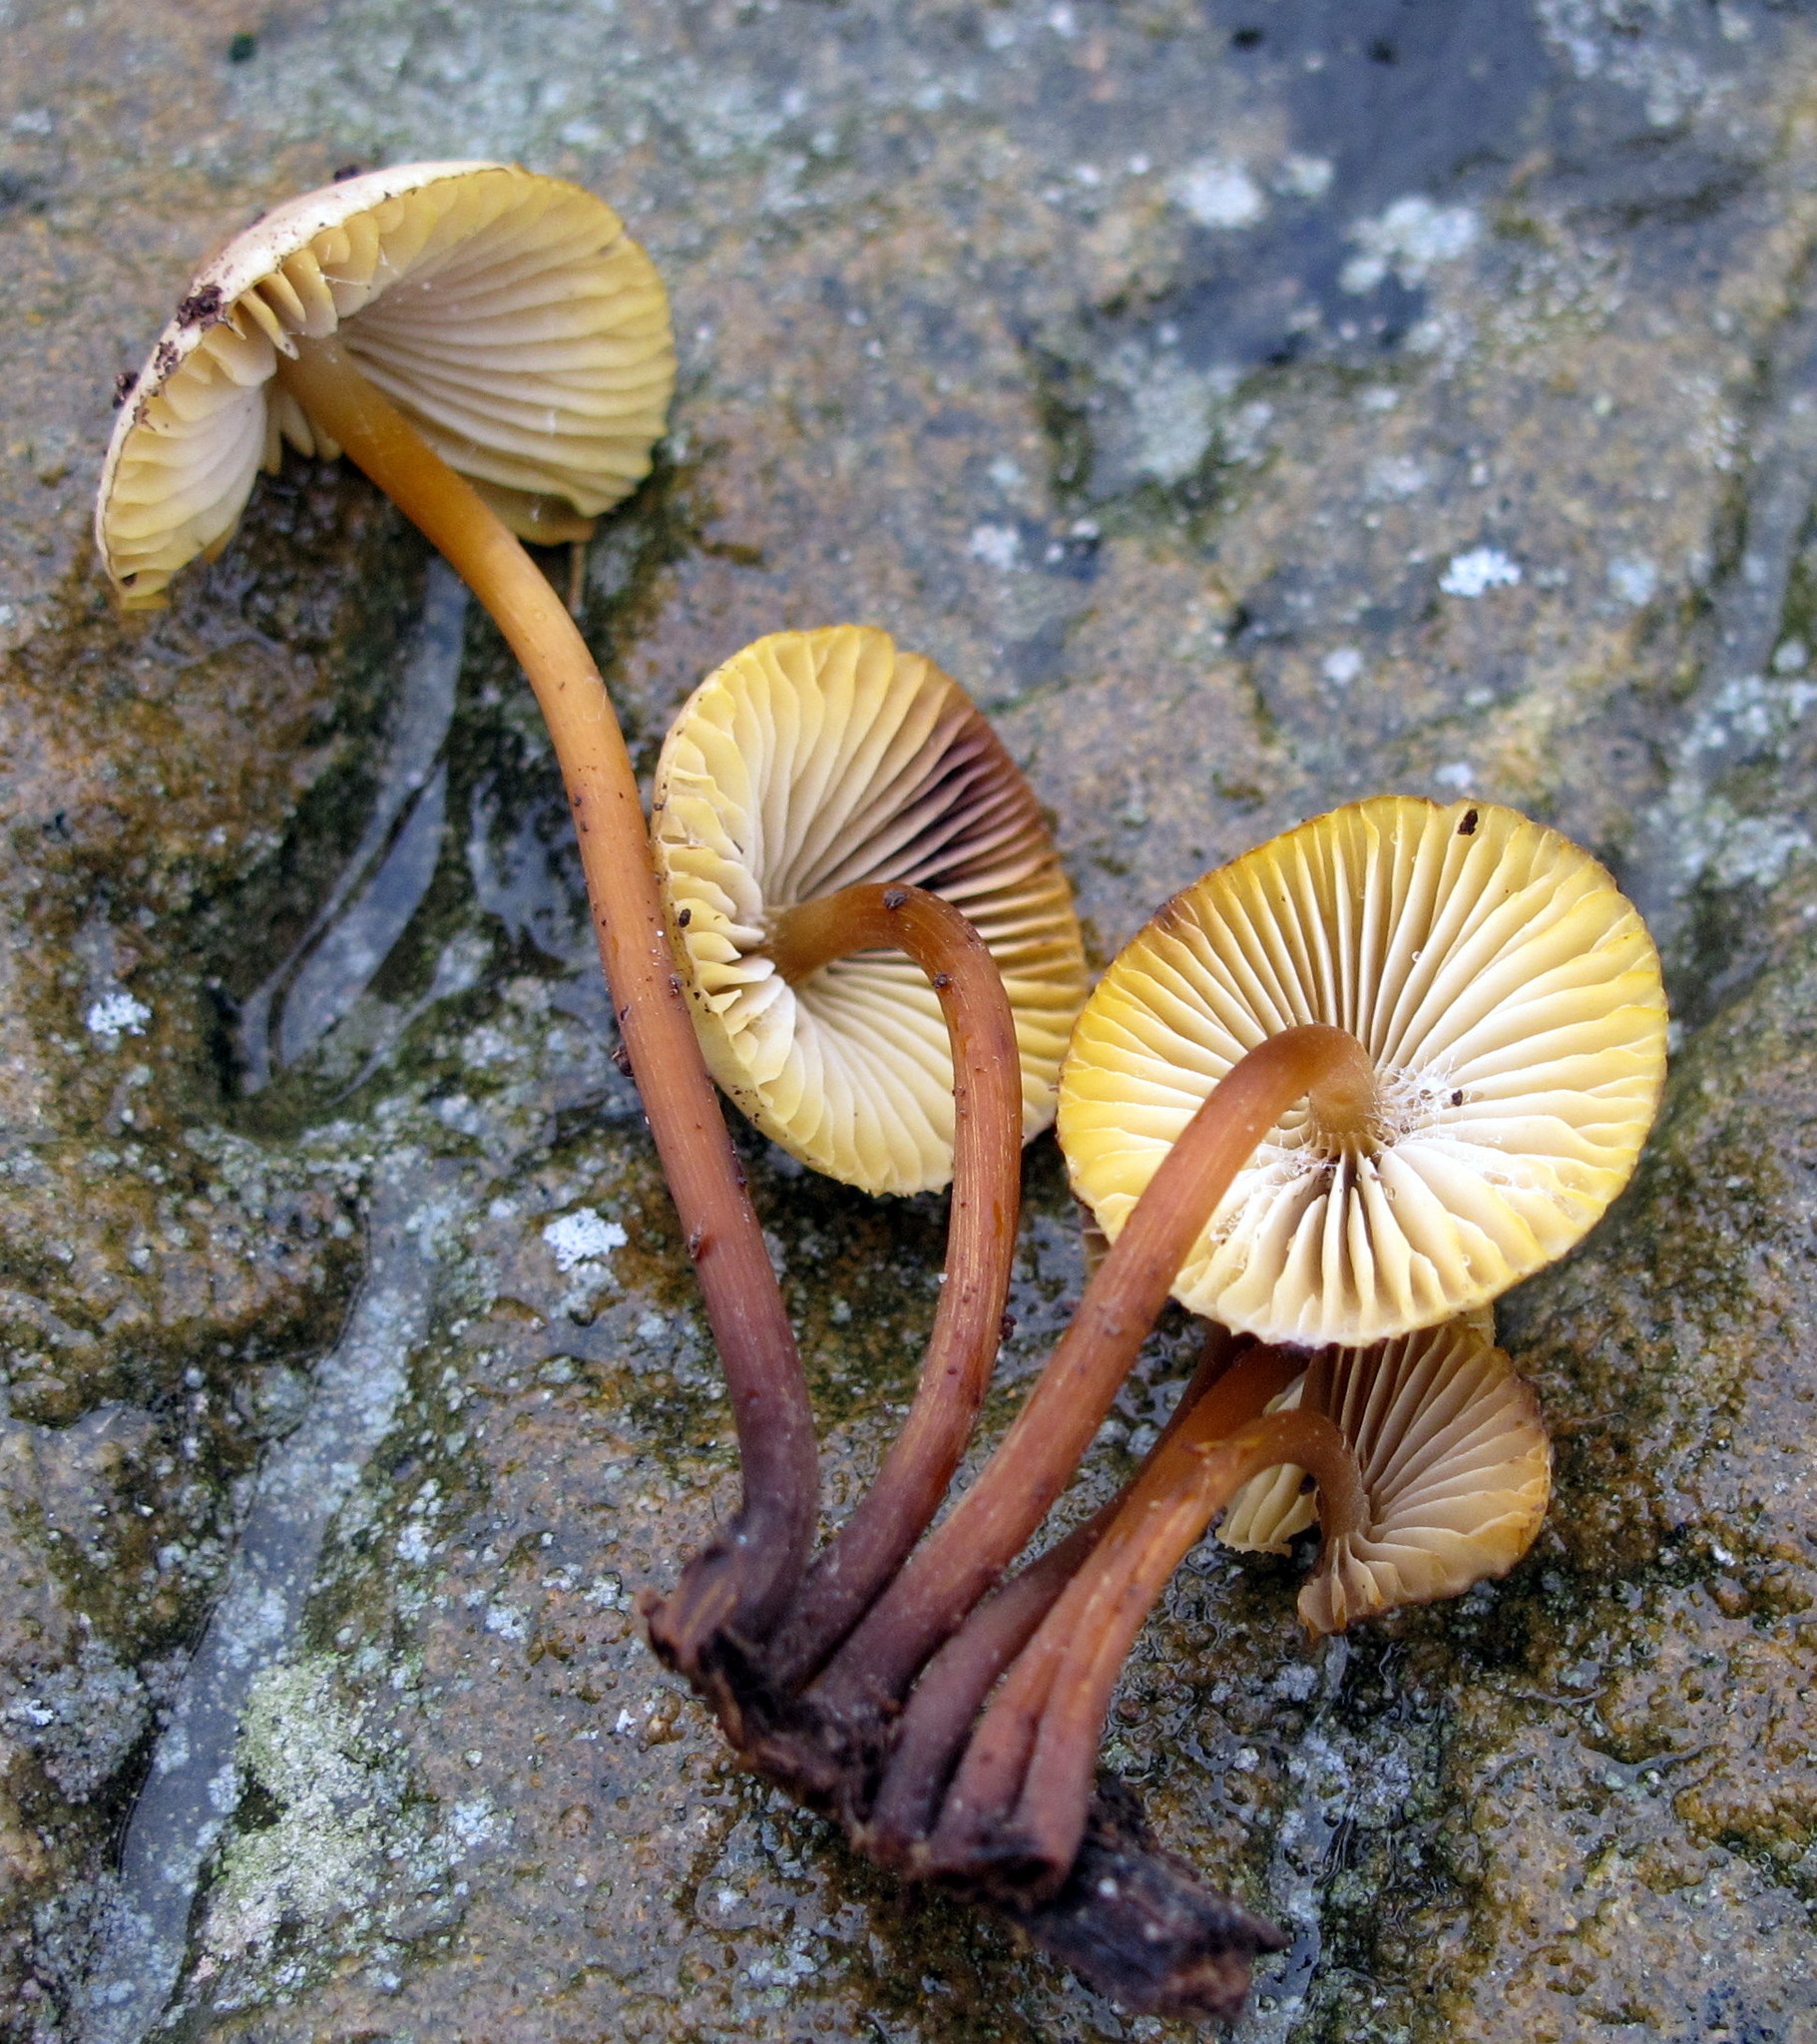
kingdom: Fungi
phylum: Basidiomycota
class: Agaricomycetes
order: Agaricales
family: Mycenaceae
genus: Mycena
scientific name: Mycena atkinsoniana
